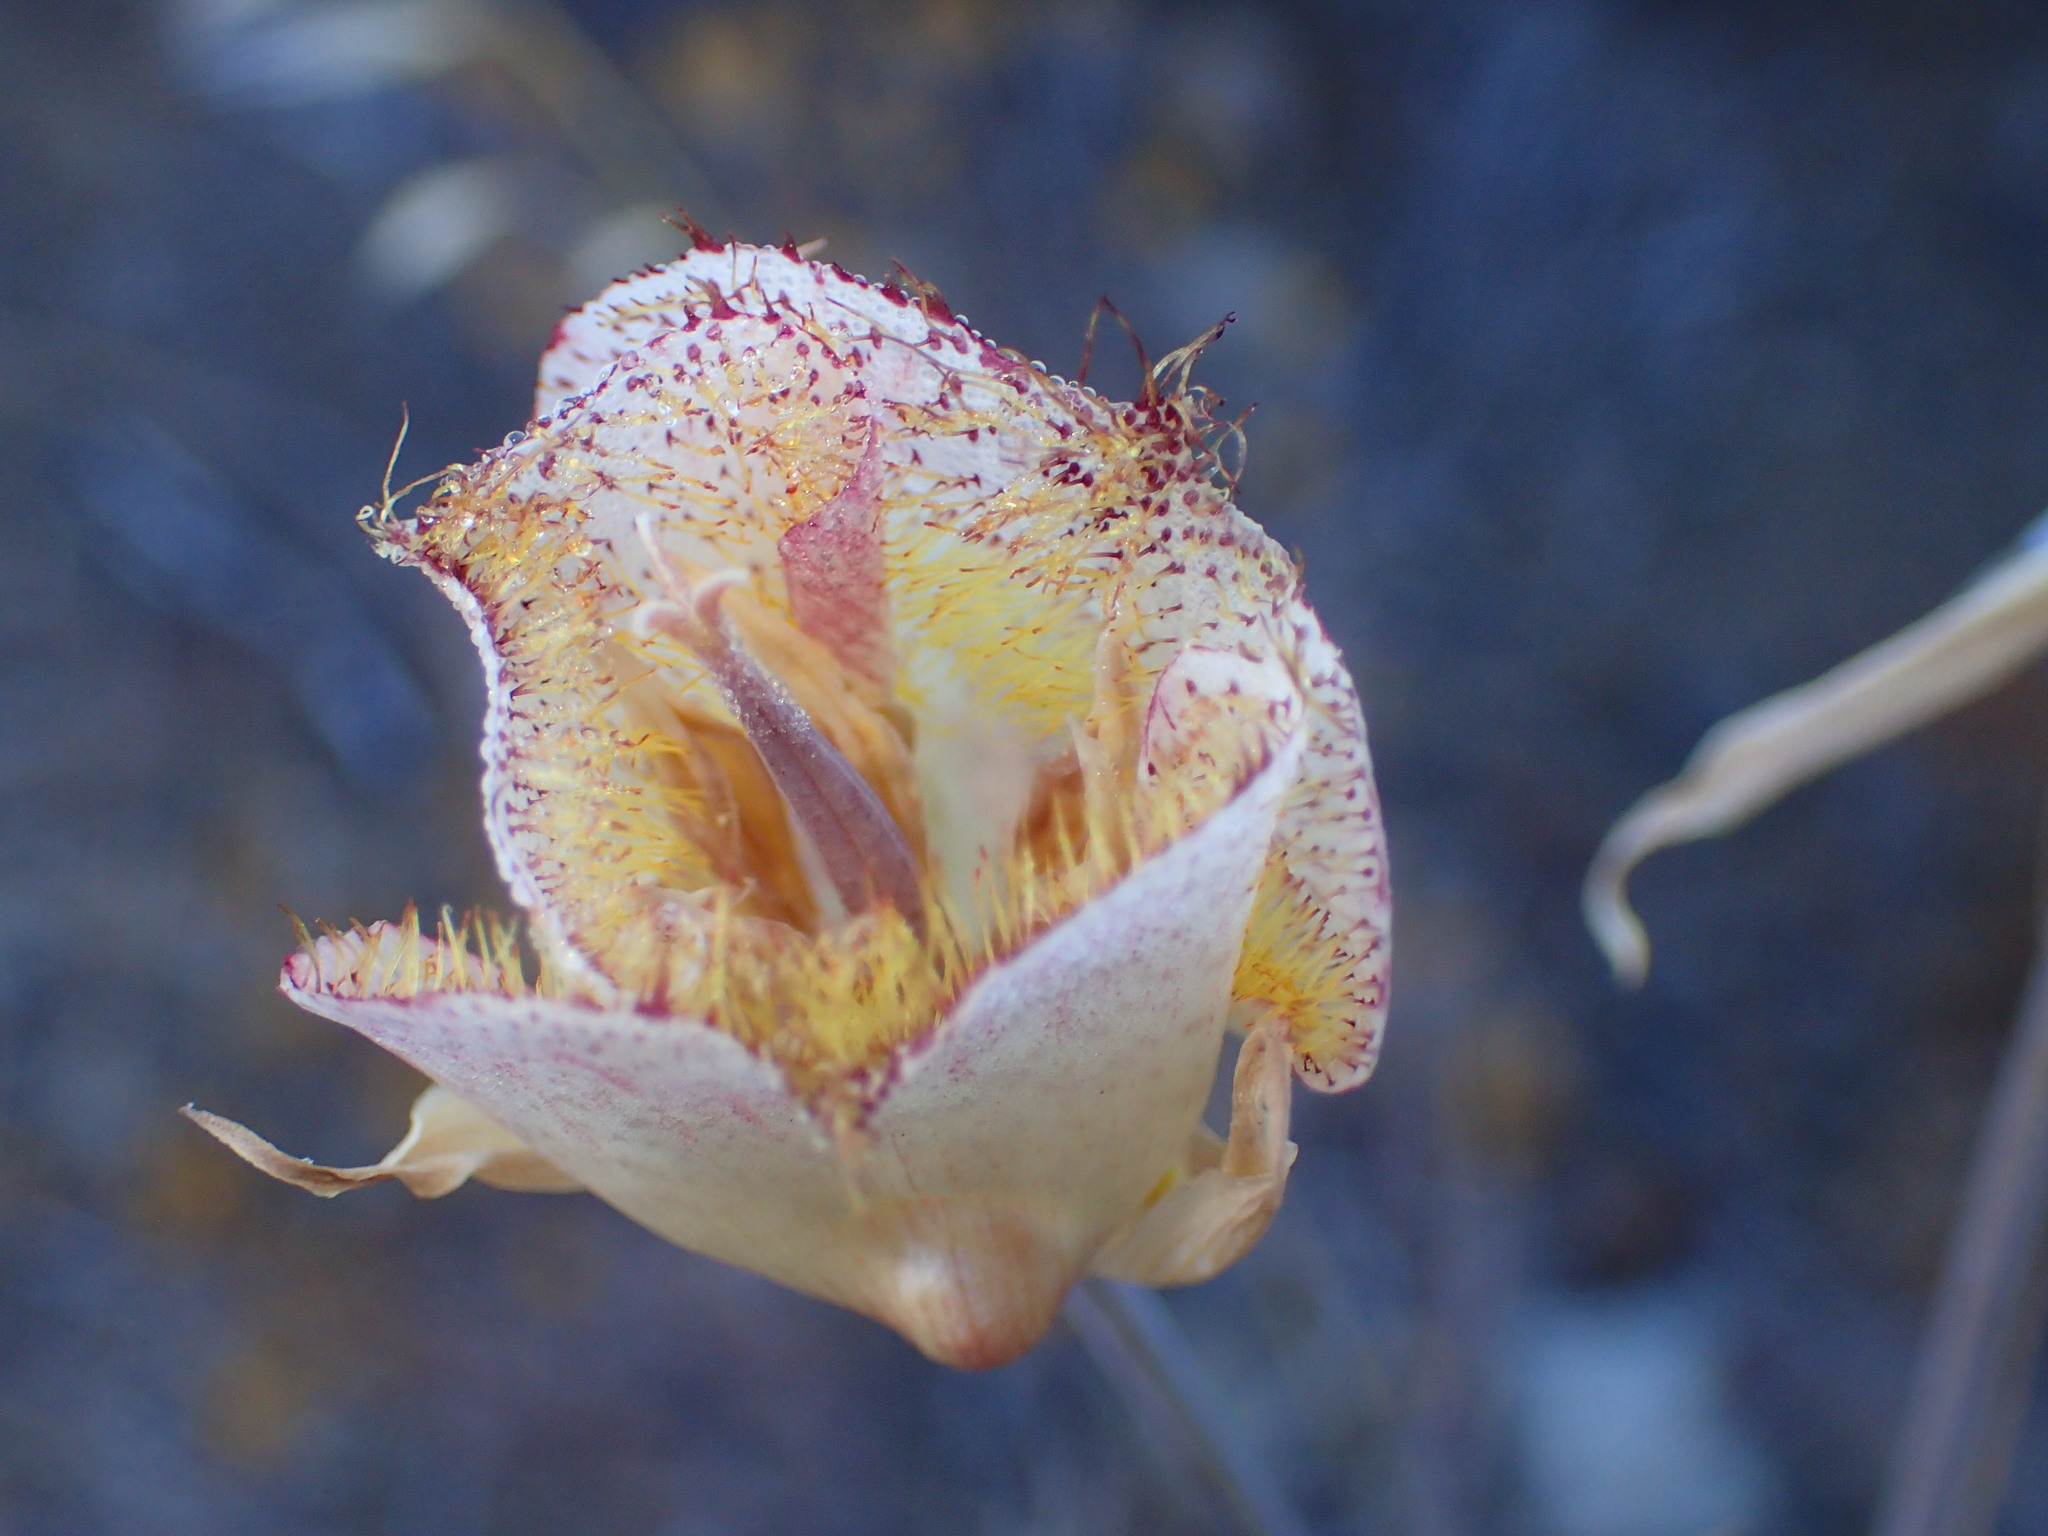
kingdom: Plantae
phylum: Tracheophyta
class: Liliopsida
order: Liliales
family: Liliaceae
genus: Calochortus
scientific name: Calochortus fimbriatus
